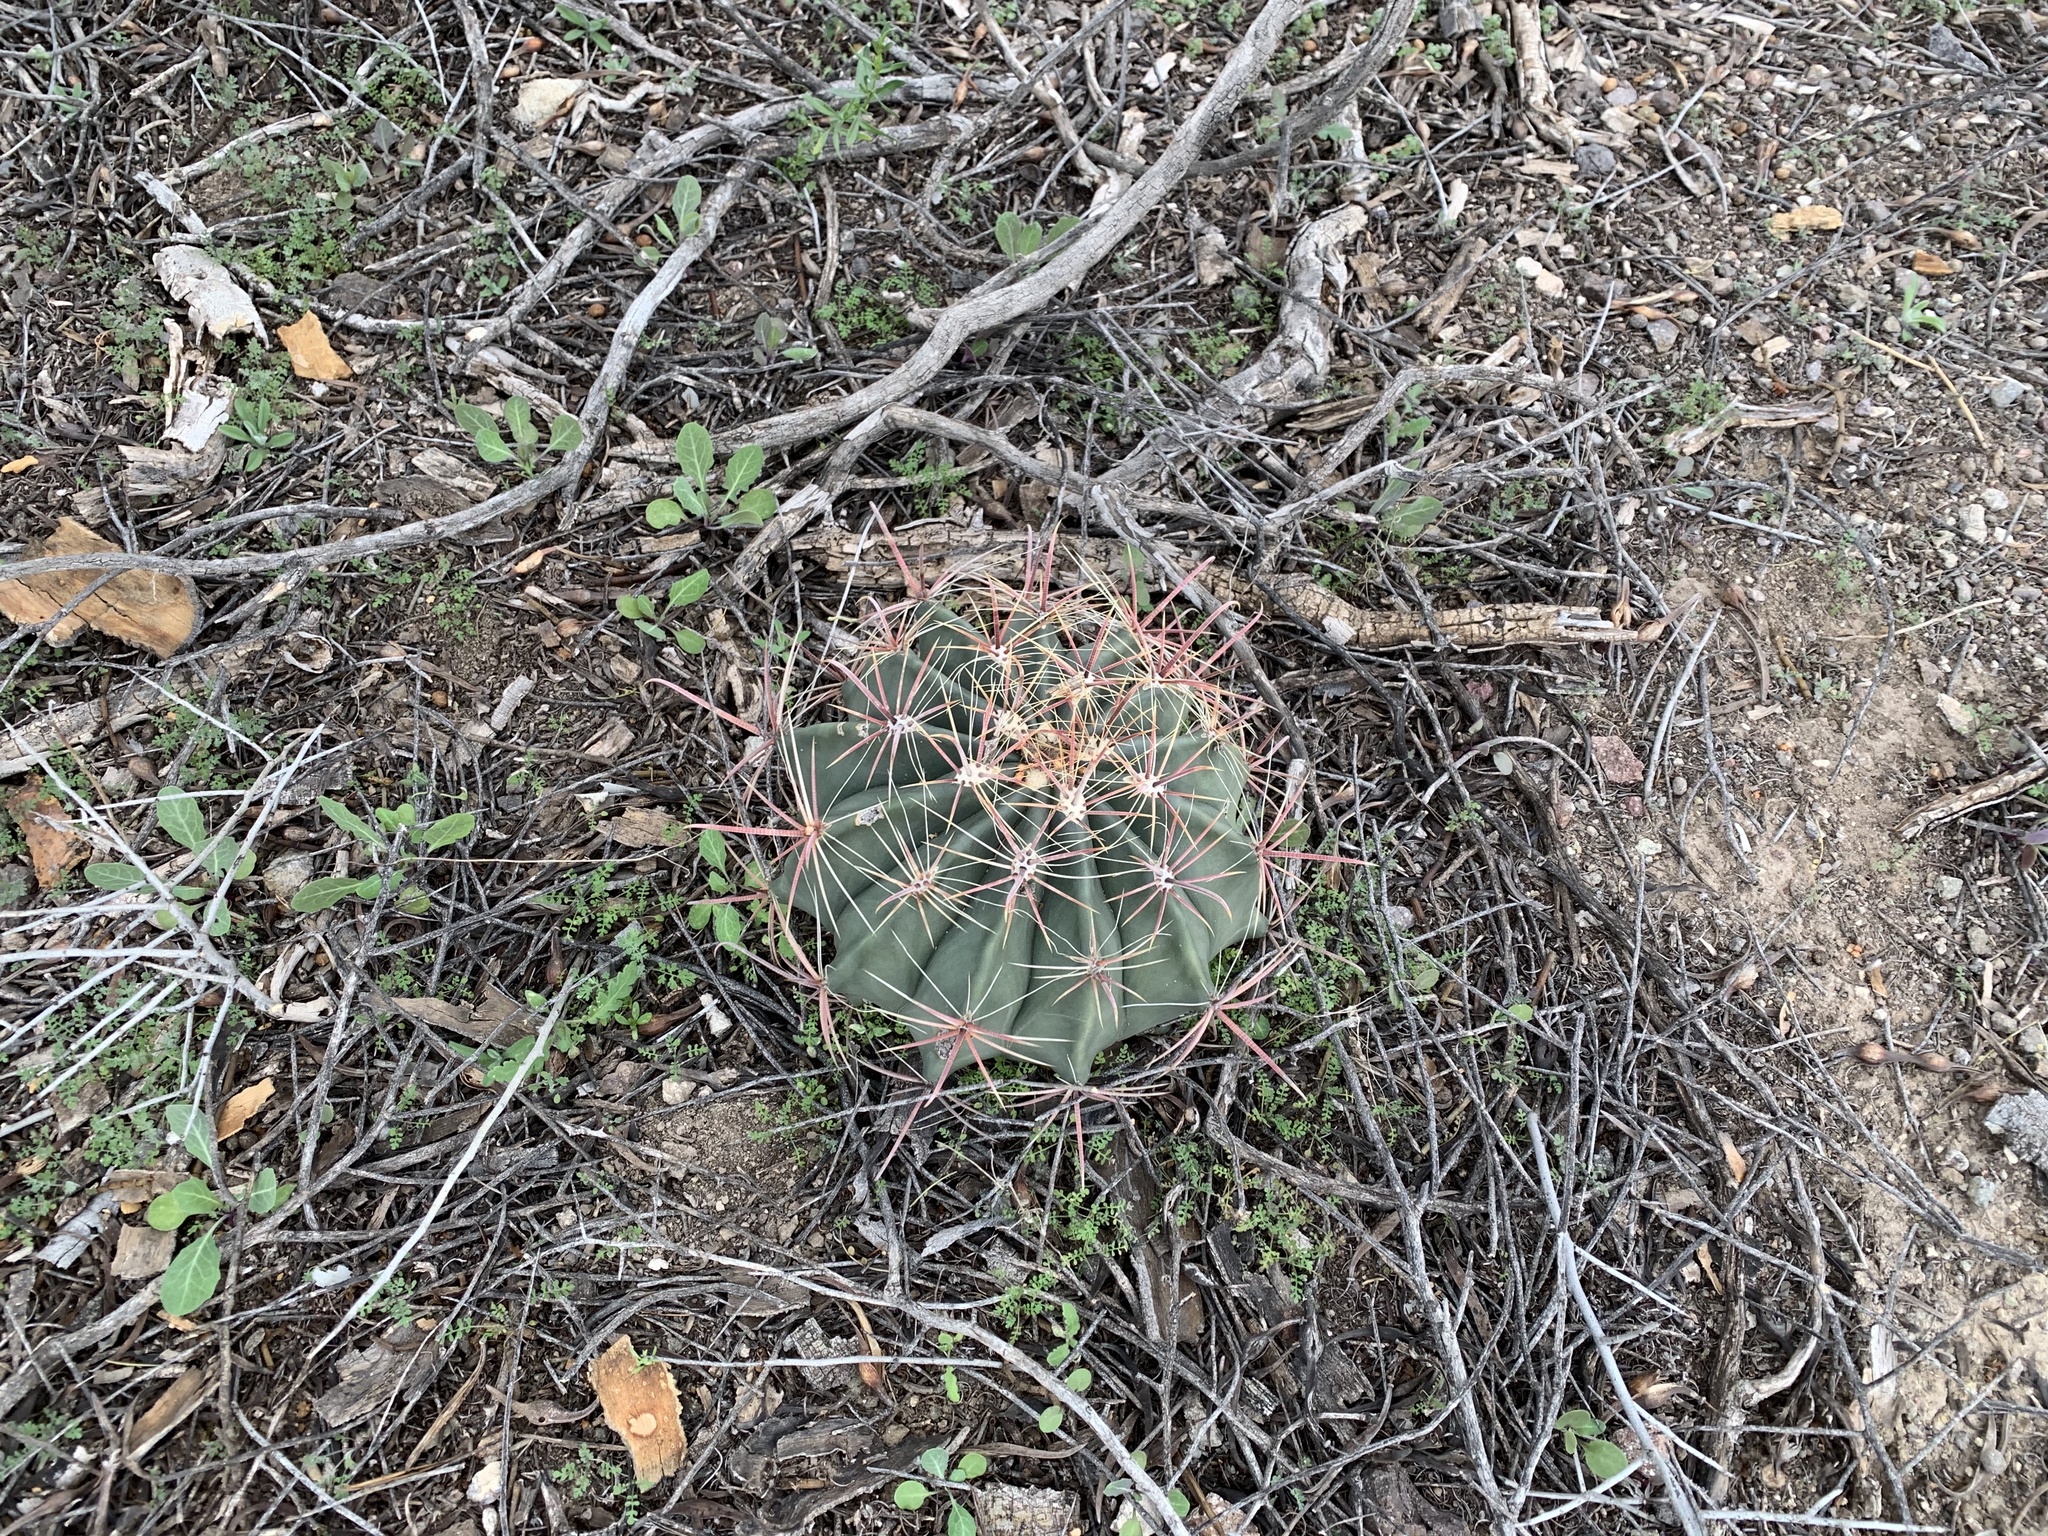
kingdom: Plantae
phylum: Tracheophyta
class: Magnoliopsida
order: Caryophyllales
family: Cactaceae
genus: Ferocactus
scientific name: Ferocactus wislizeni
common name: Candy barrel cactus
